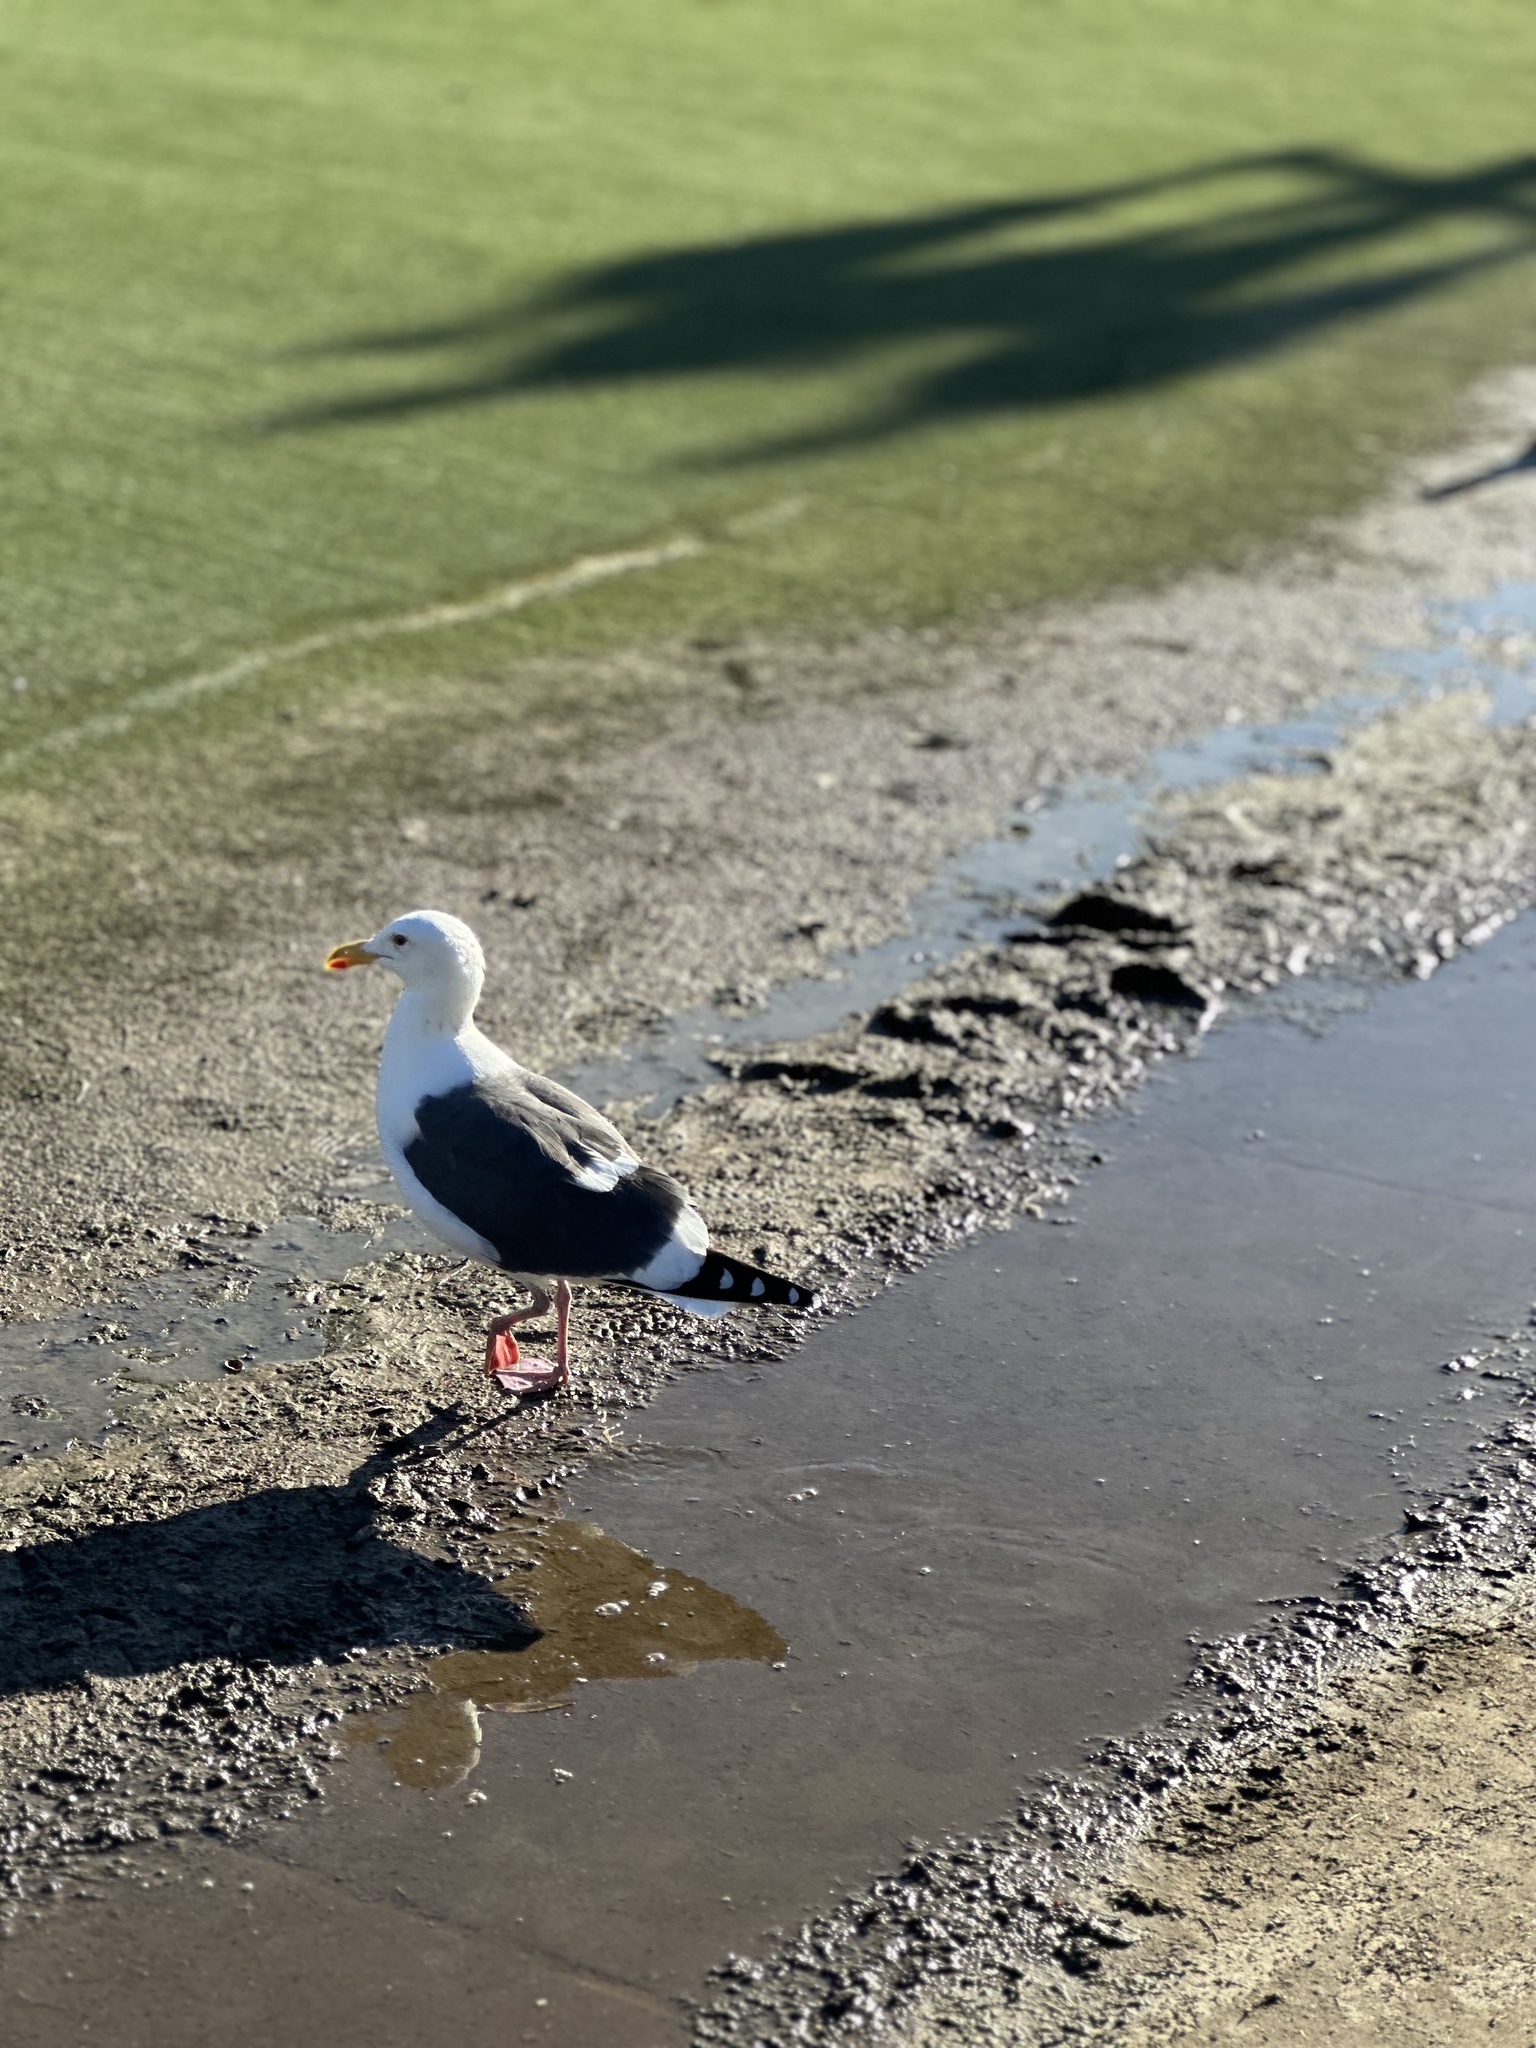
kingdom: Animalia
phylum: Chordata
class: Aves
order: Charadriiformes
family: Laridae
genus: Larus
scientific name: Larus occidentalis
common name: Western gull
